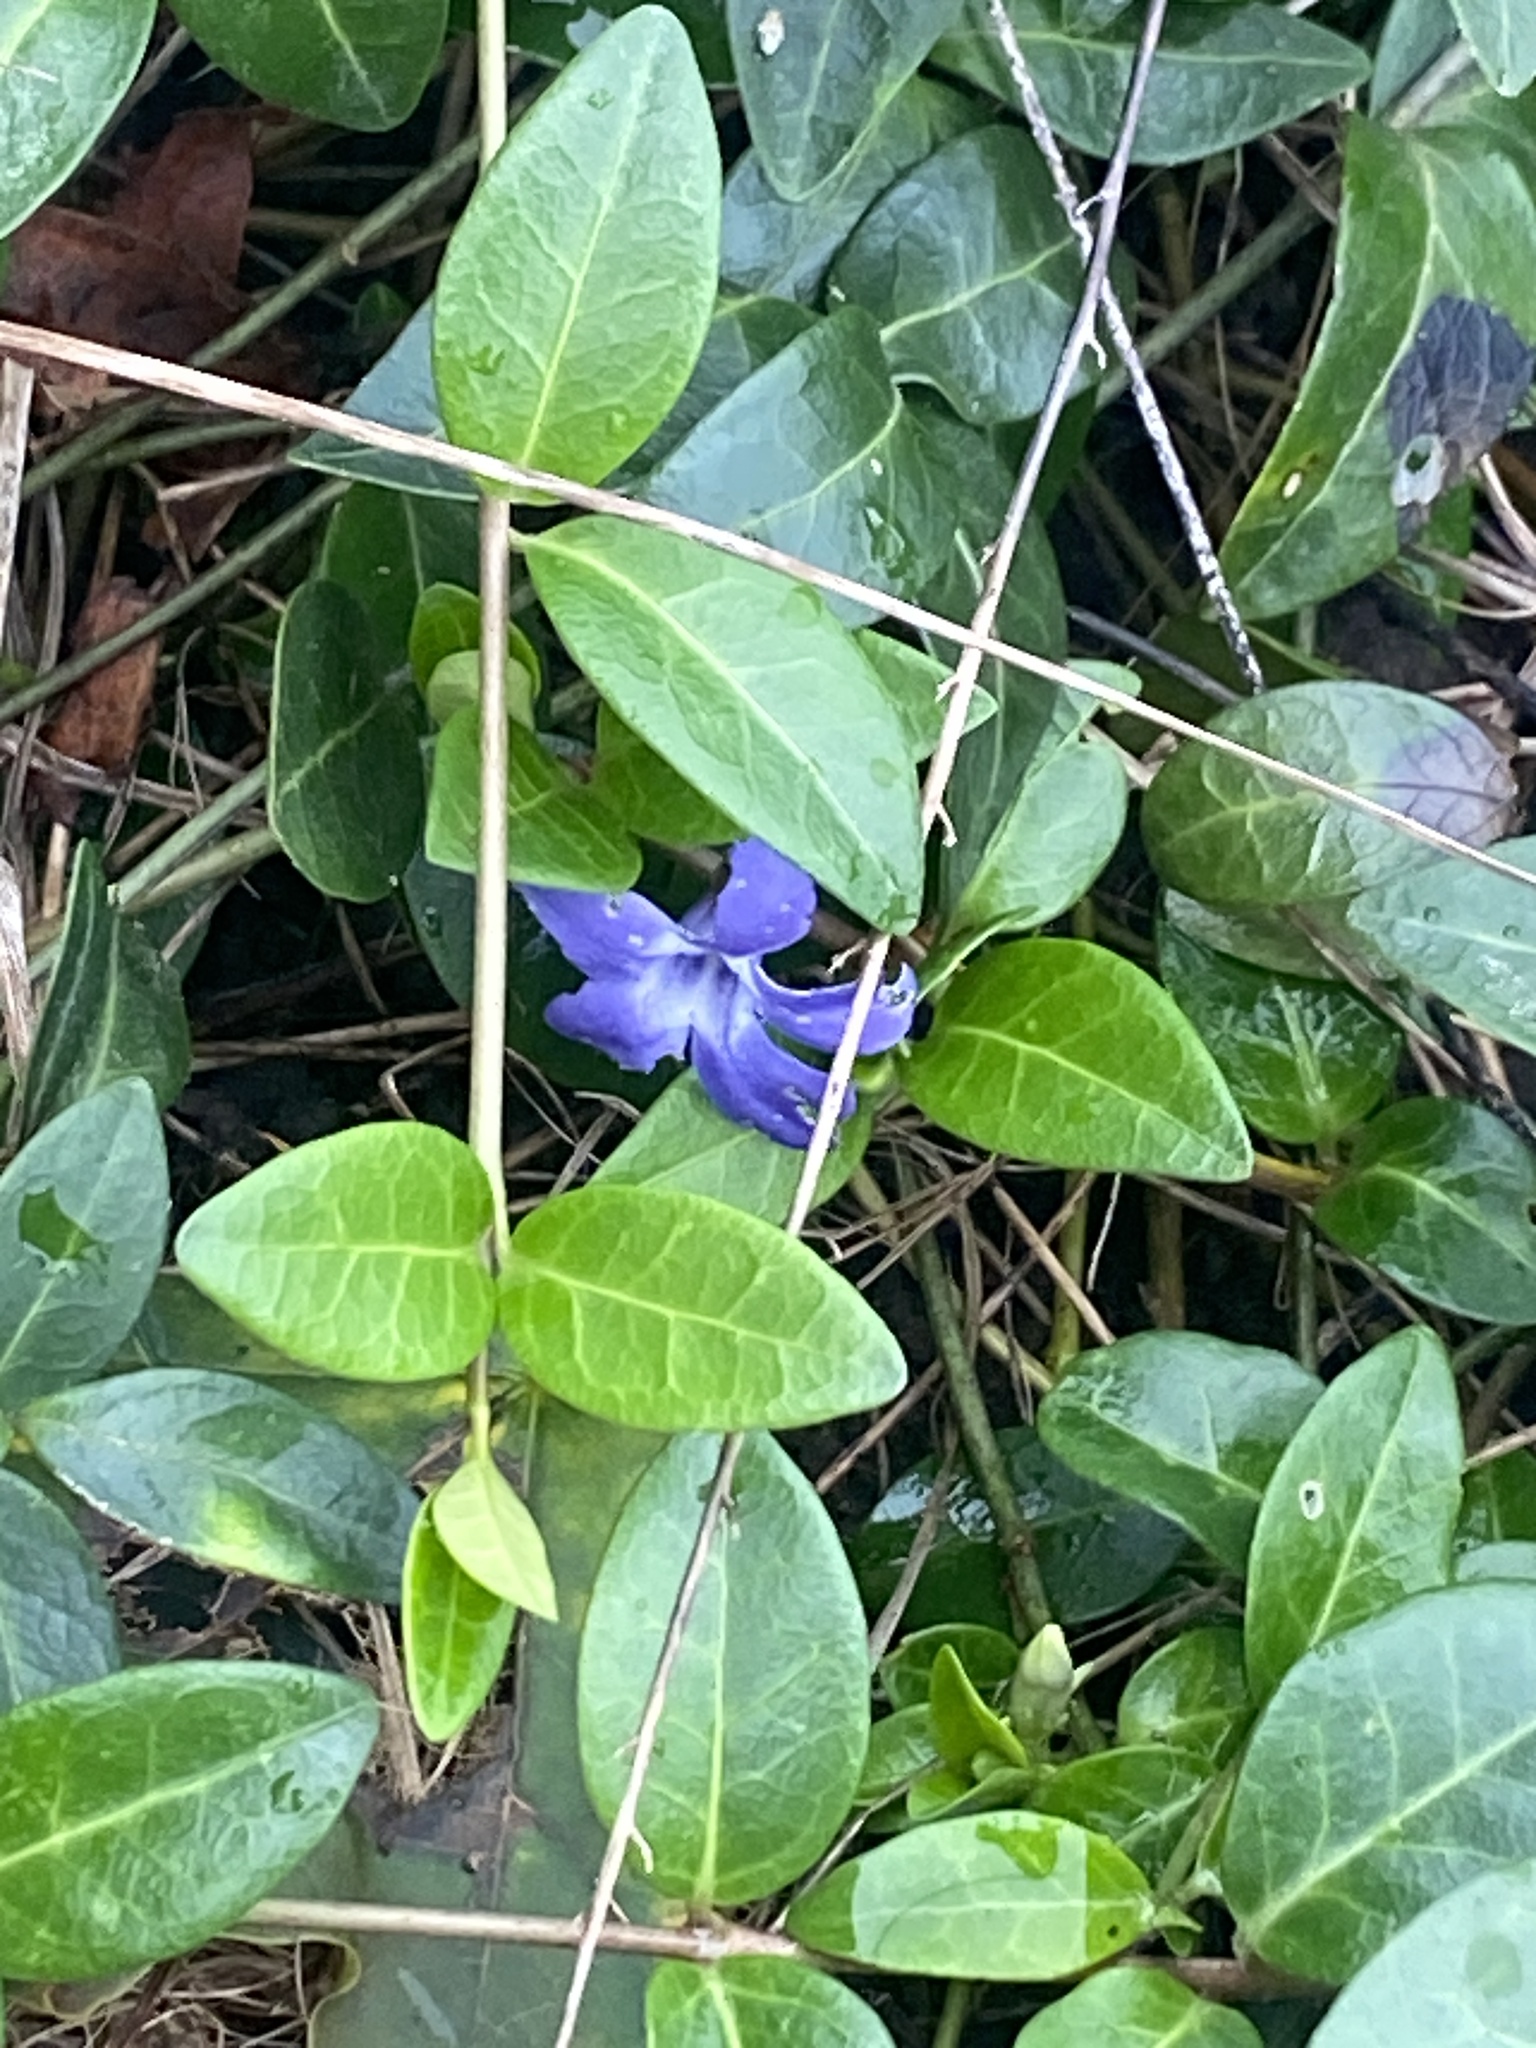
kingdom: Plantae
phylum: Tracheophyta
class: Magnoliopsida
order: Gentianales
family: Apocynaceae
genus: Vinca
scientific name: Vinca minor
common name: Lesser periwinkle
